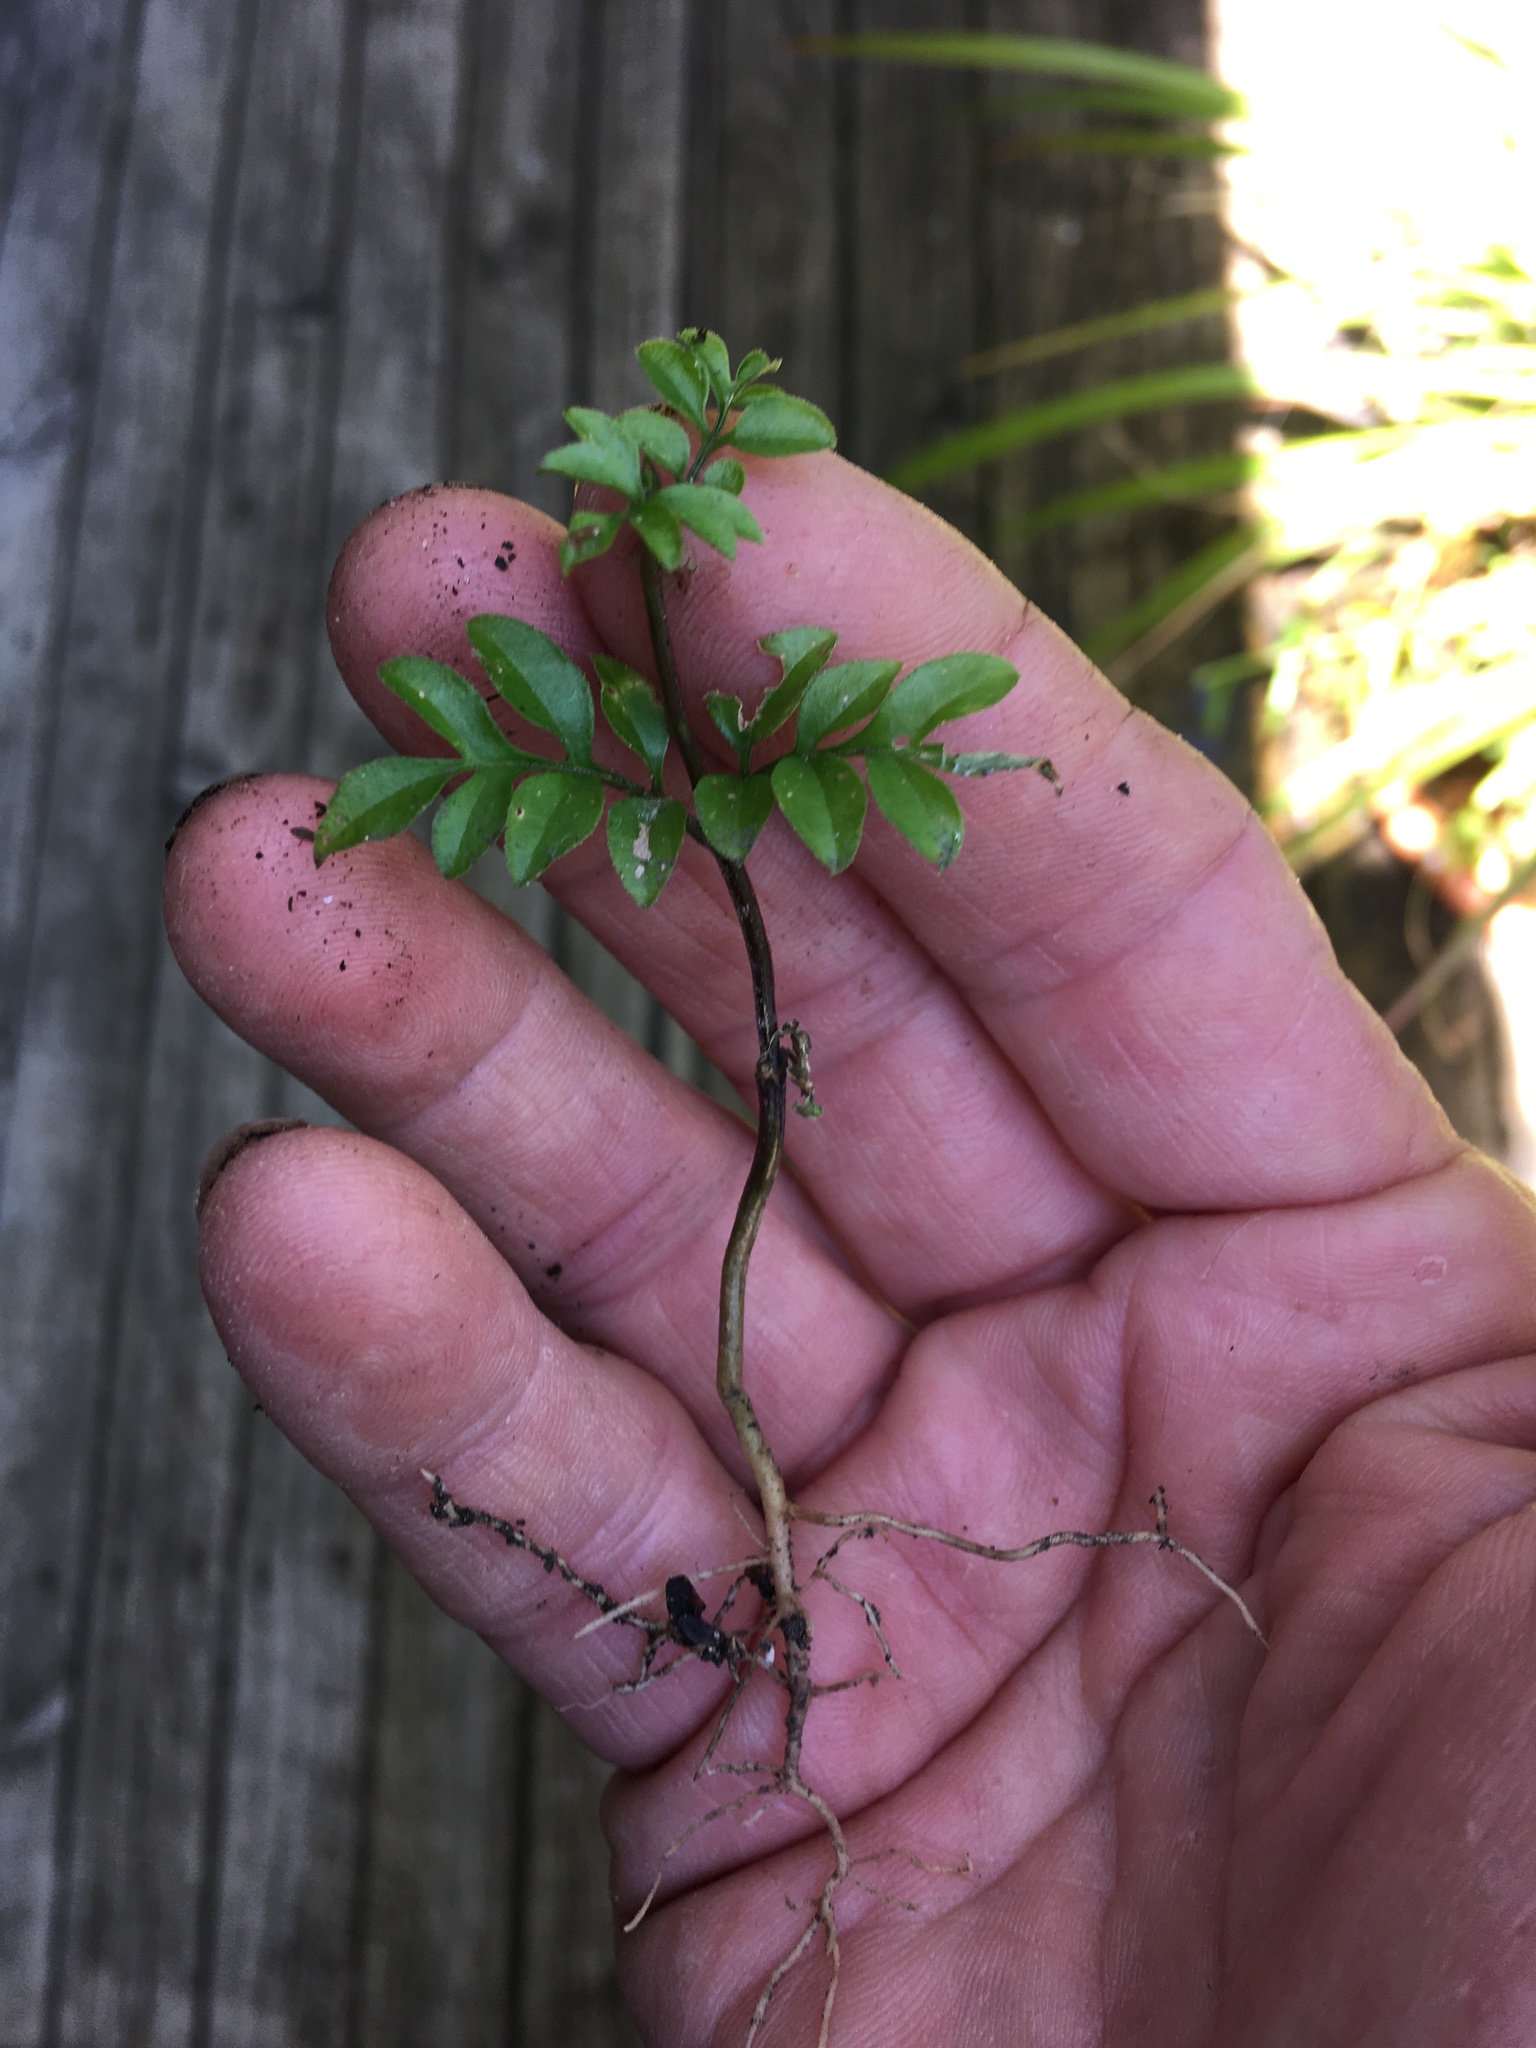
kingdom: Plantae
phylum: Tracheophyta
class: Magnoliopsida
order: Lamiales
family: Oleaceae
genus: Jasminum
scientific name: Jasminum polyanthum
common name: Pink jasmine
